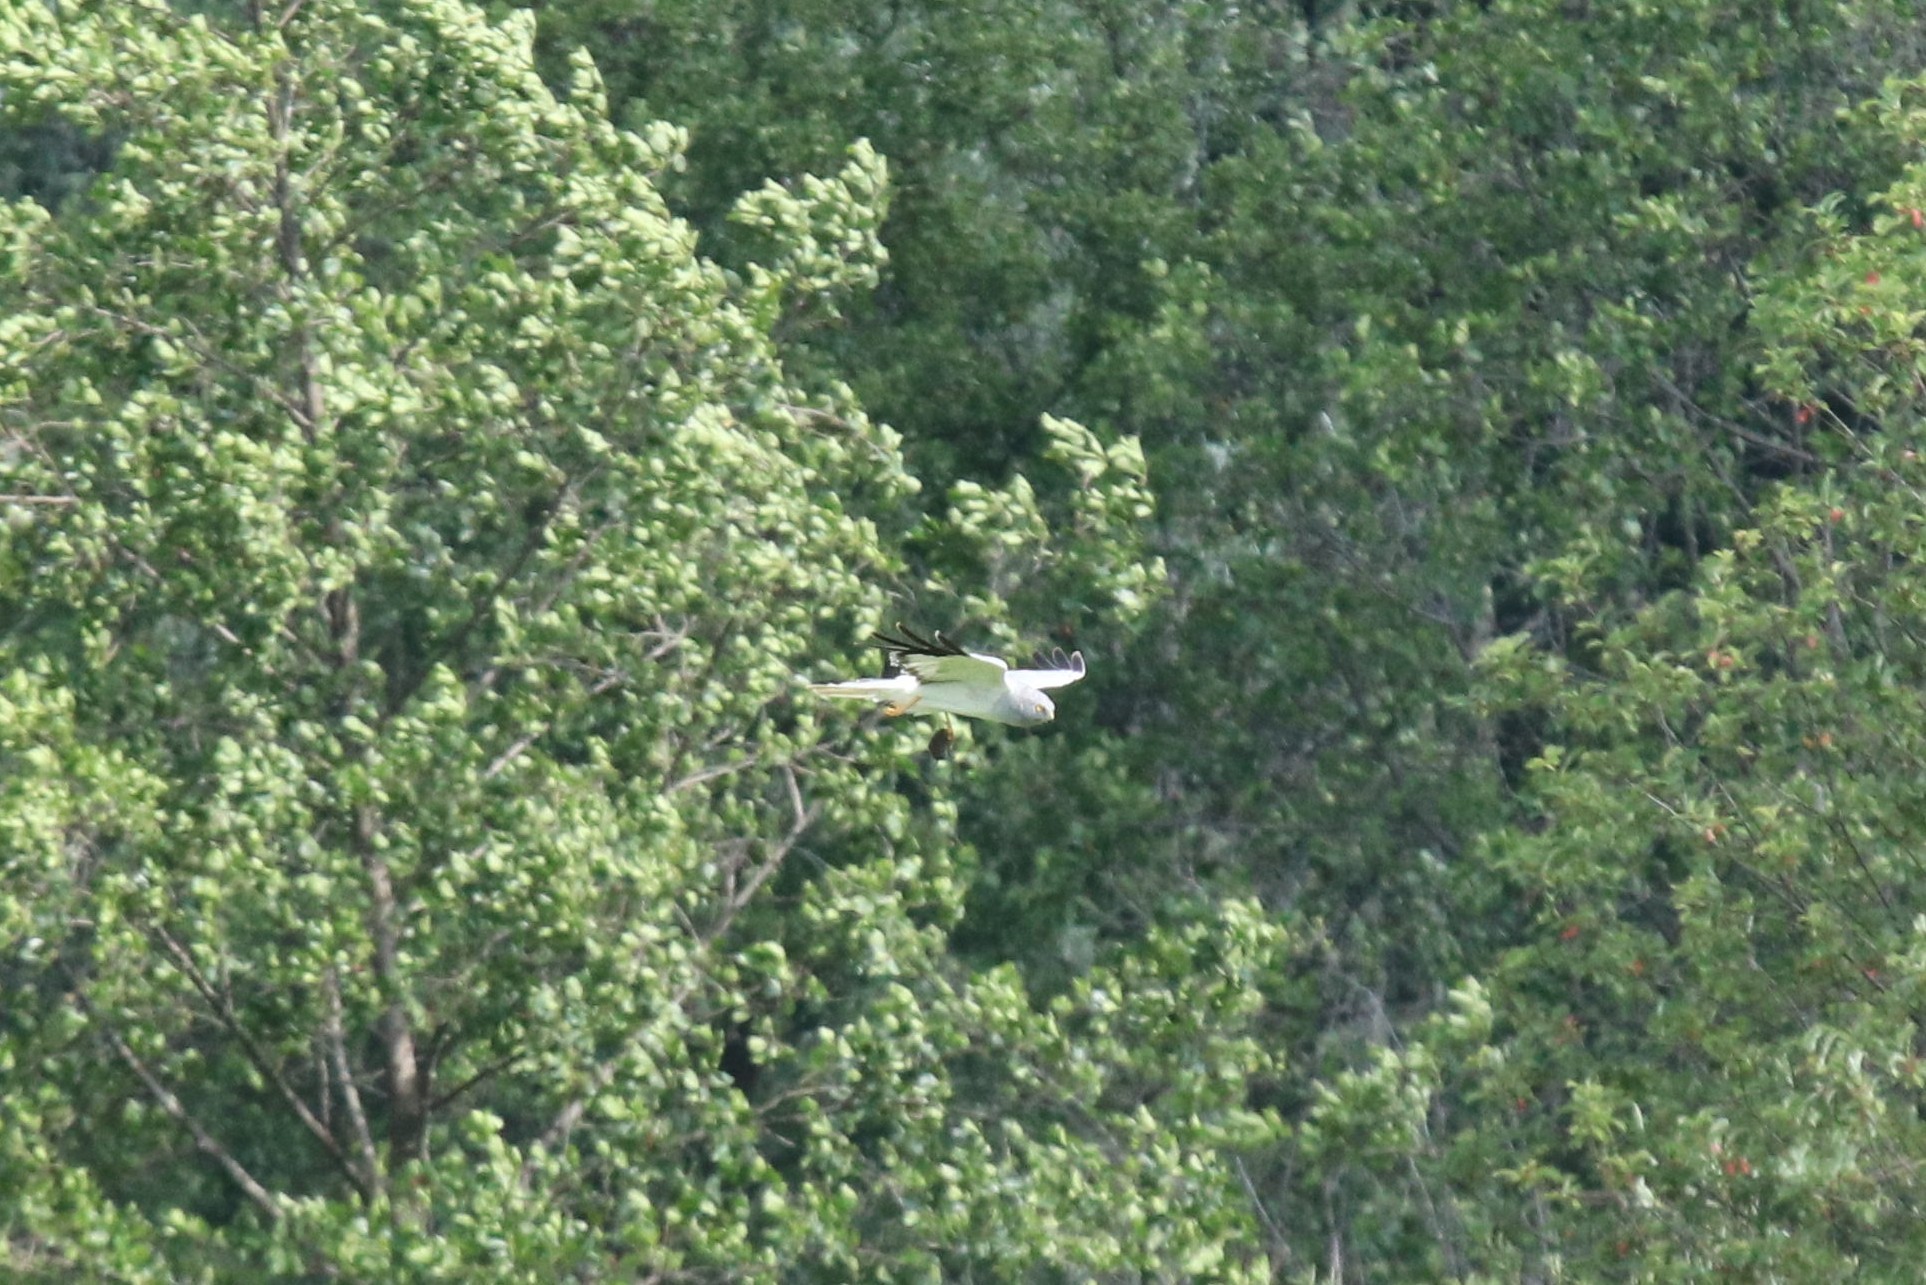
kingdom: Animalia
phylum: Chordata
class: Aves
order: Accipitriformes
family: Accipitridae
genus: Circus
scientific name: Circus cyaneus
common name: Hen harrier
